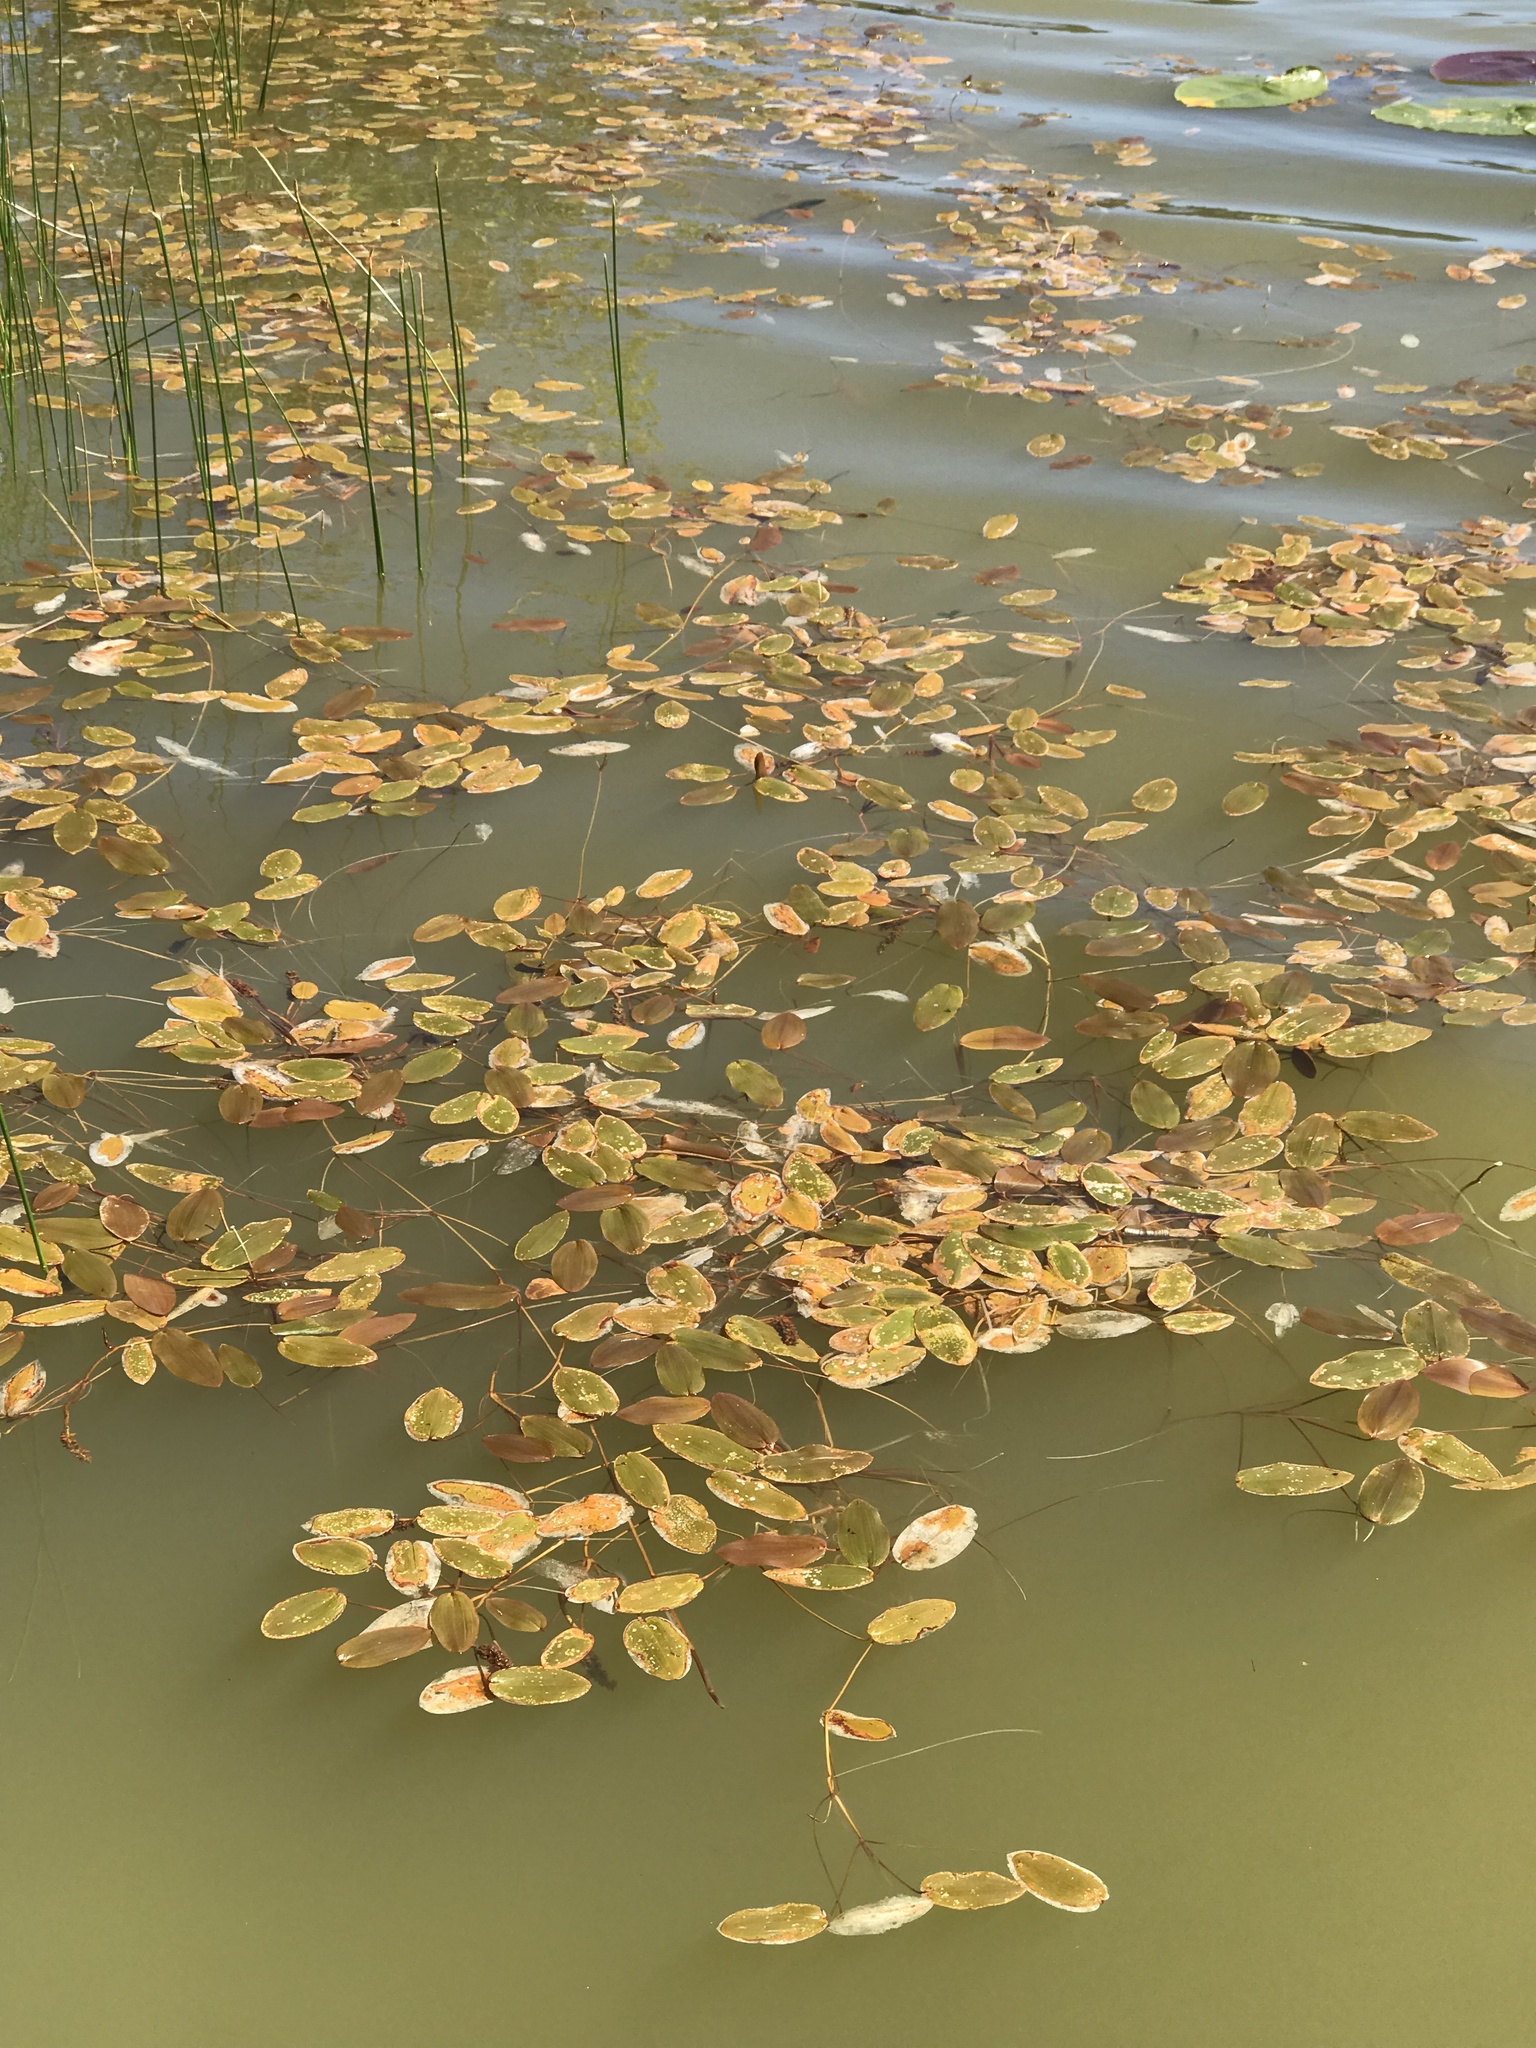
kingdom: Plantae
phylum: Tracheophyta
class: Liliopsida
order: Alismatales
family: Potamogetonaceae
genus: Potamogeton
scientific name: Potamogeton natans
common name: Broad-leaved pondweed
